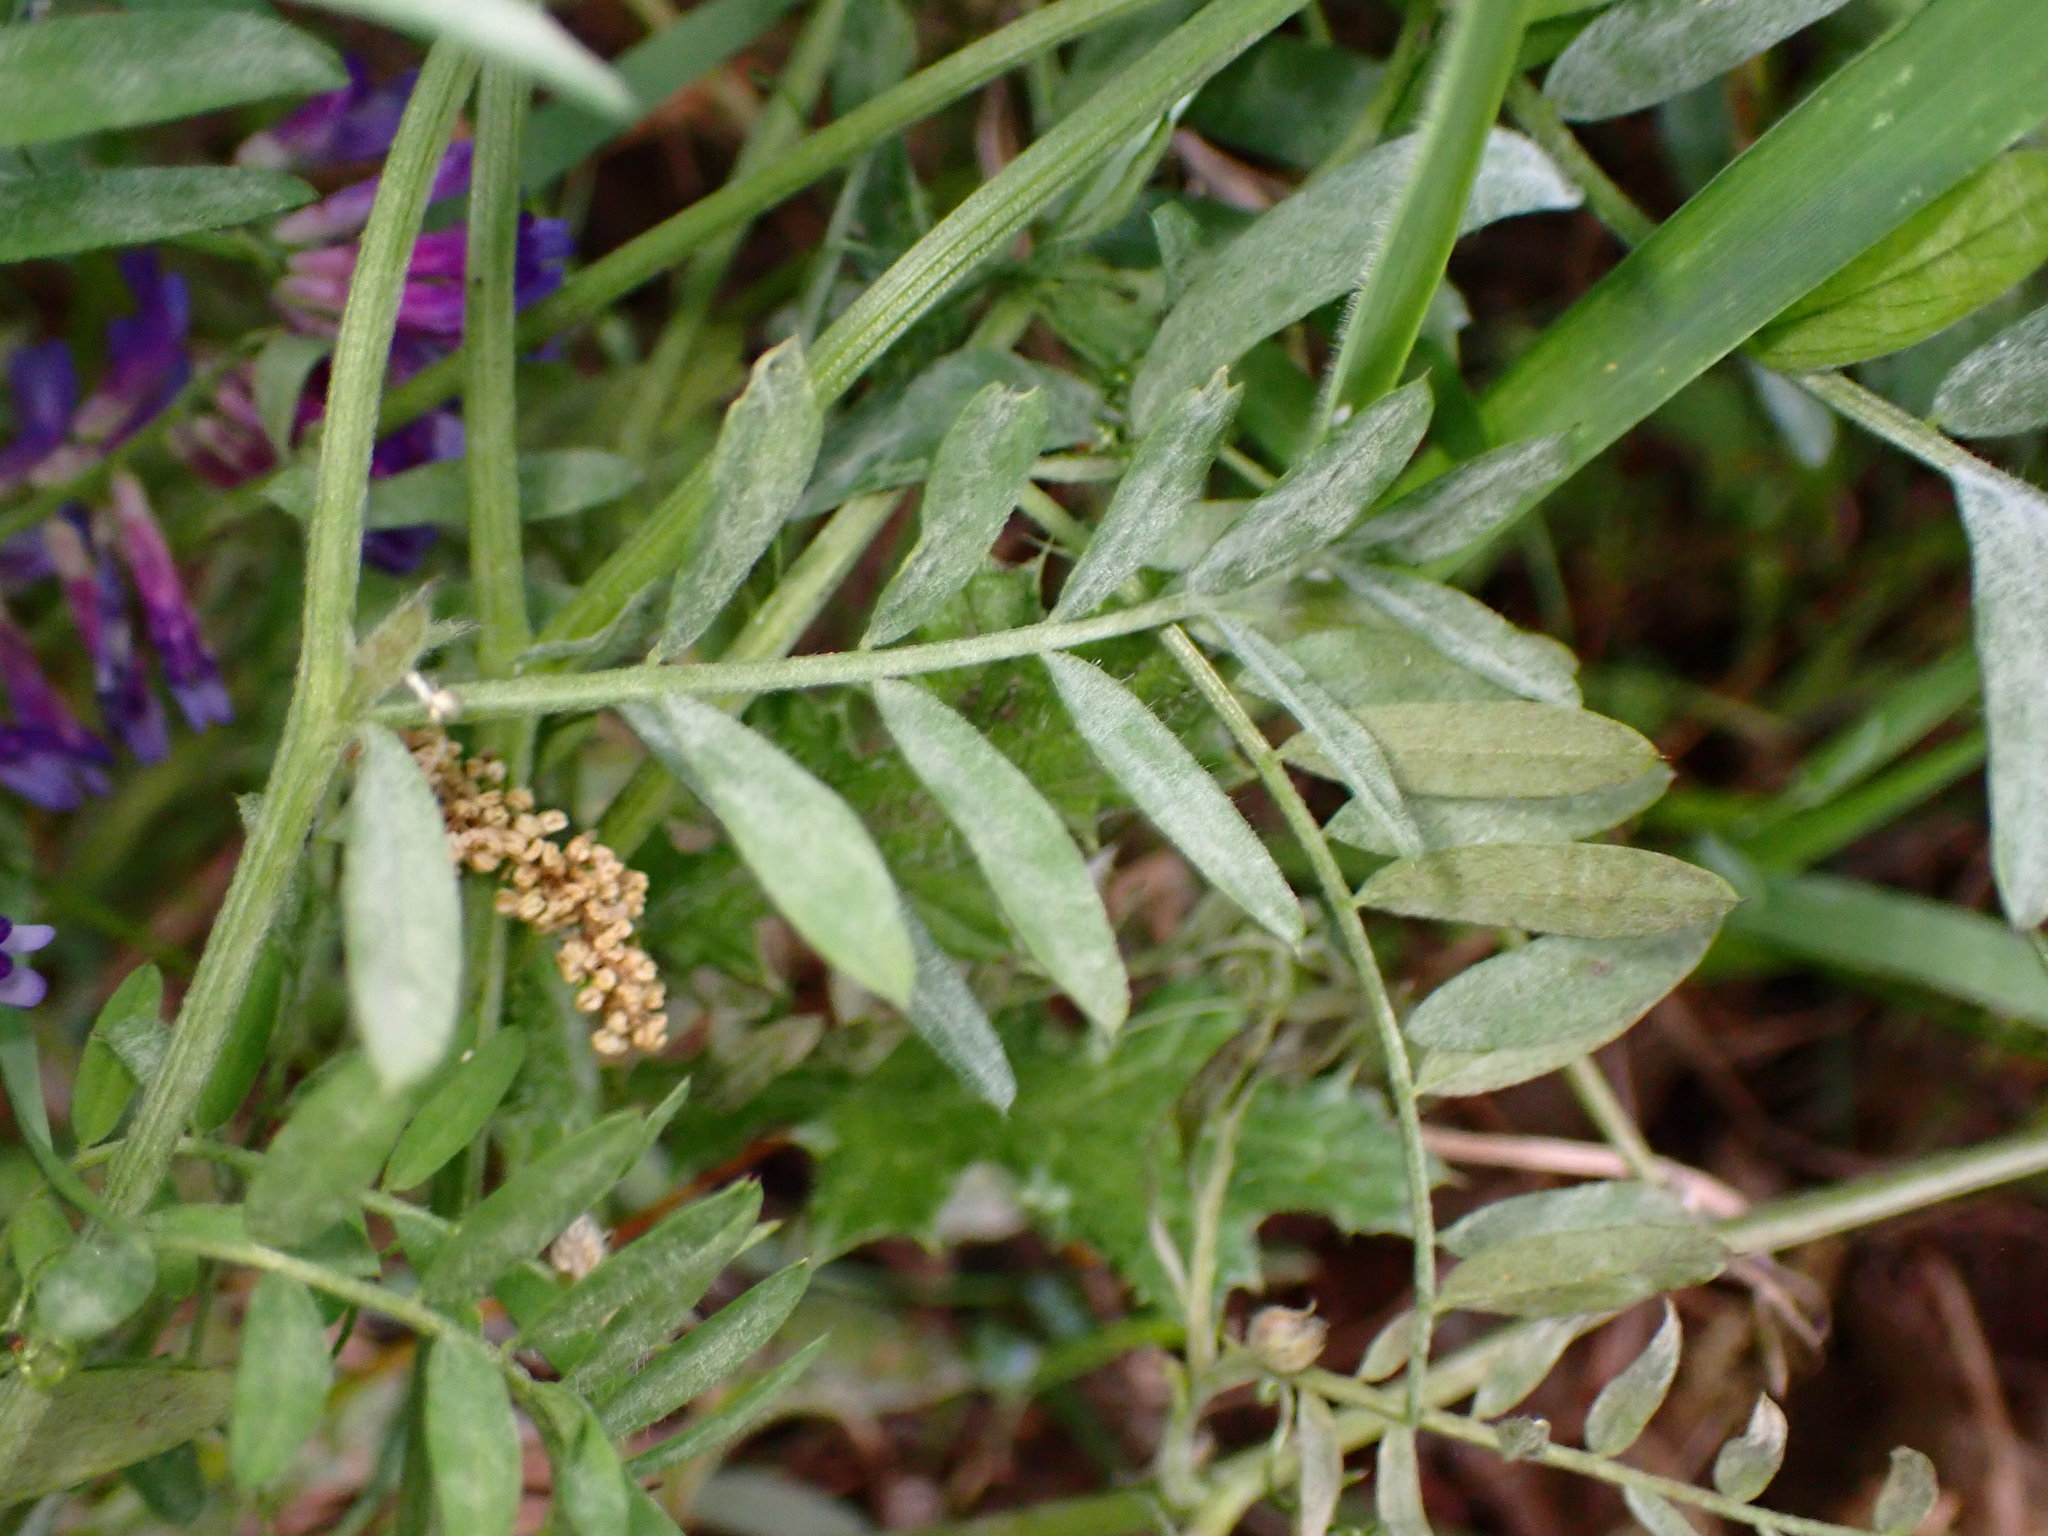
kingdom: Plantae
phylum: Tracheophyta
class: Magnoliopsida
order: Fabales
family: Fabaceae
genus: Vicia
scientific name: Vicia villosa
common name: Fodder vetch
